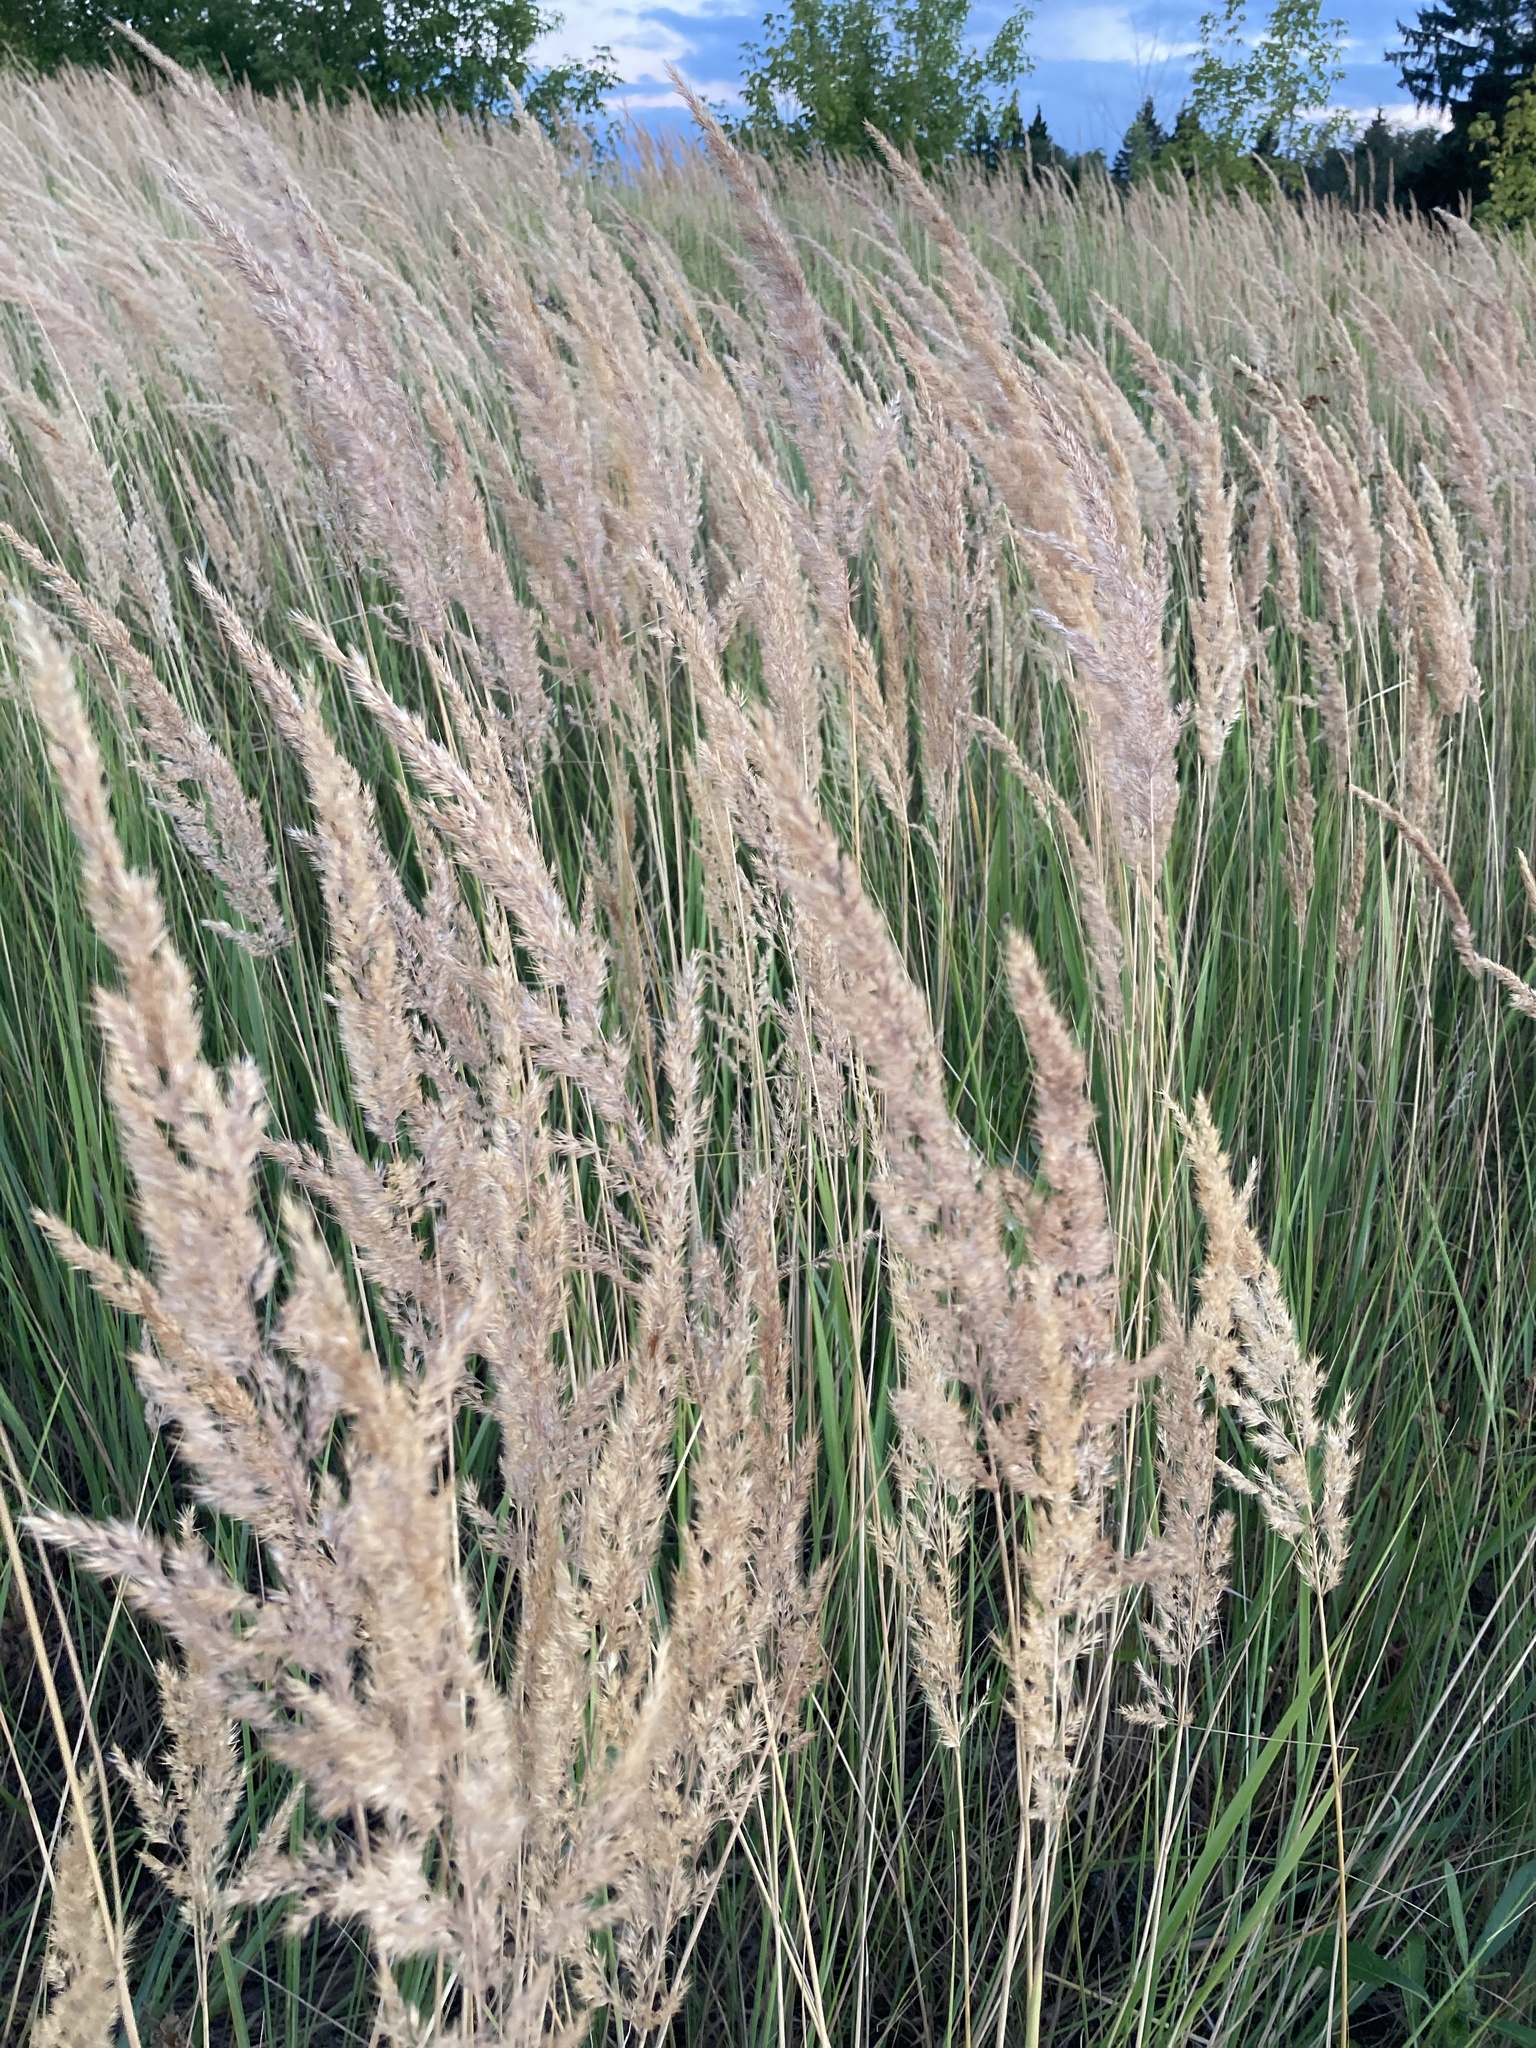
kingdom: Plantae
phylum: Tracheophyta
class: Liliopsida
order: Poales
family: Poaceae
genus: Calamagrostis
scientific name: Calamagrostis epigejos
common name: Wood small-reed
